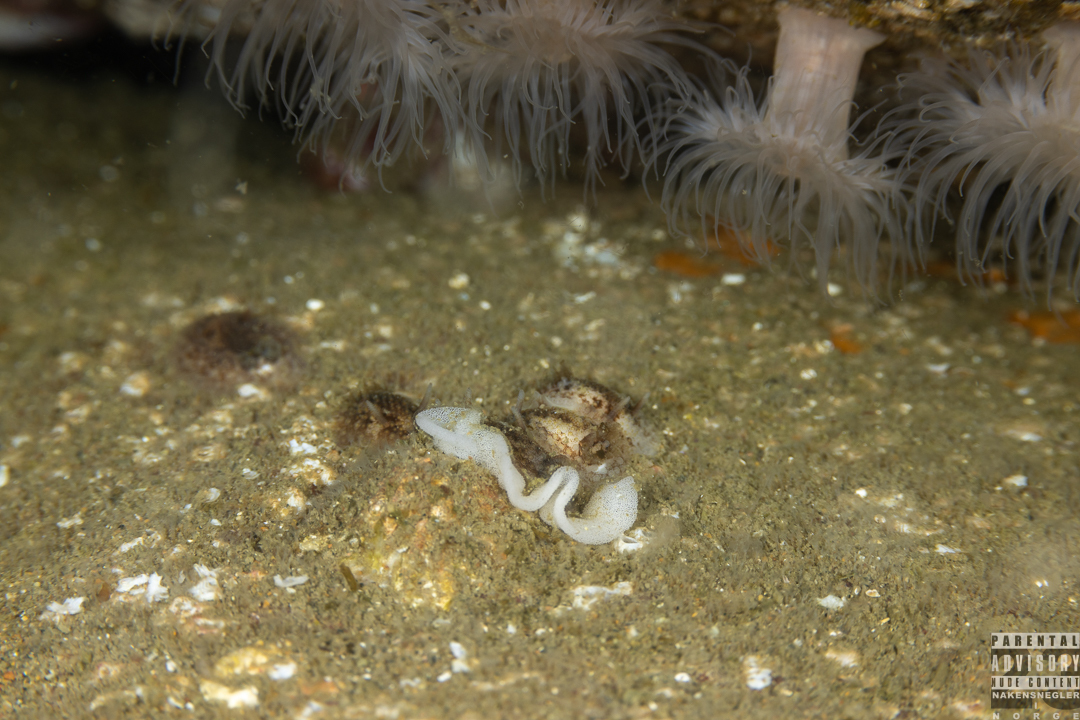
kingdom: Animalia
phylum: Mollusca
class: Gastropoda
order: Nudibranchia
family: Onchidorididae
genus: Onchidoris
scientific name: Onchidoris bilamellata
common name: Barnacle-eating onchidoris
